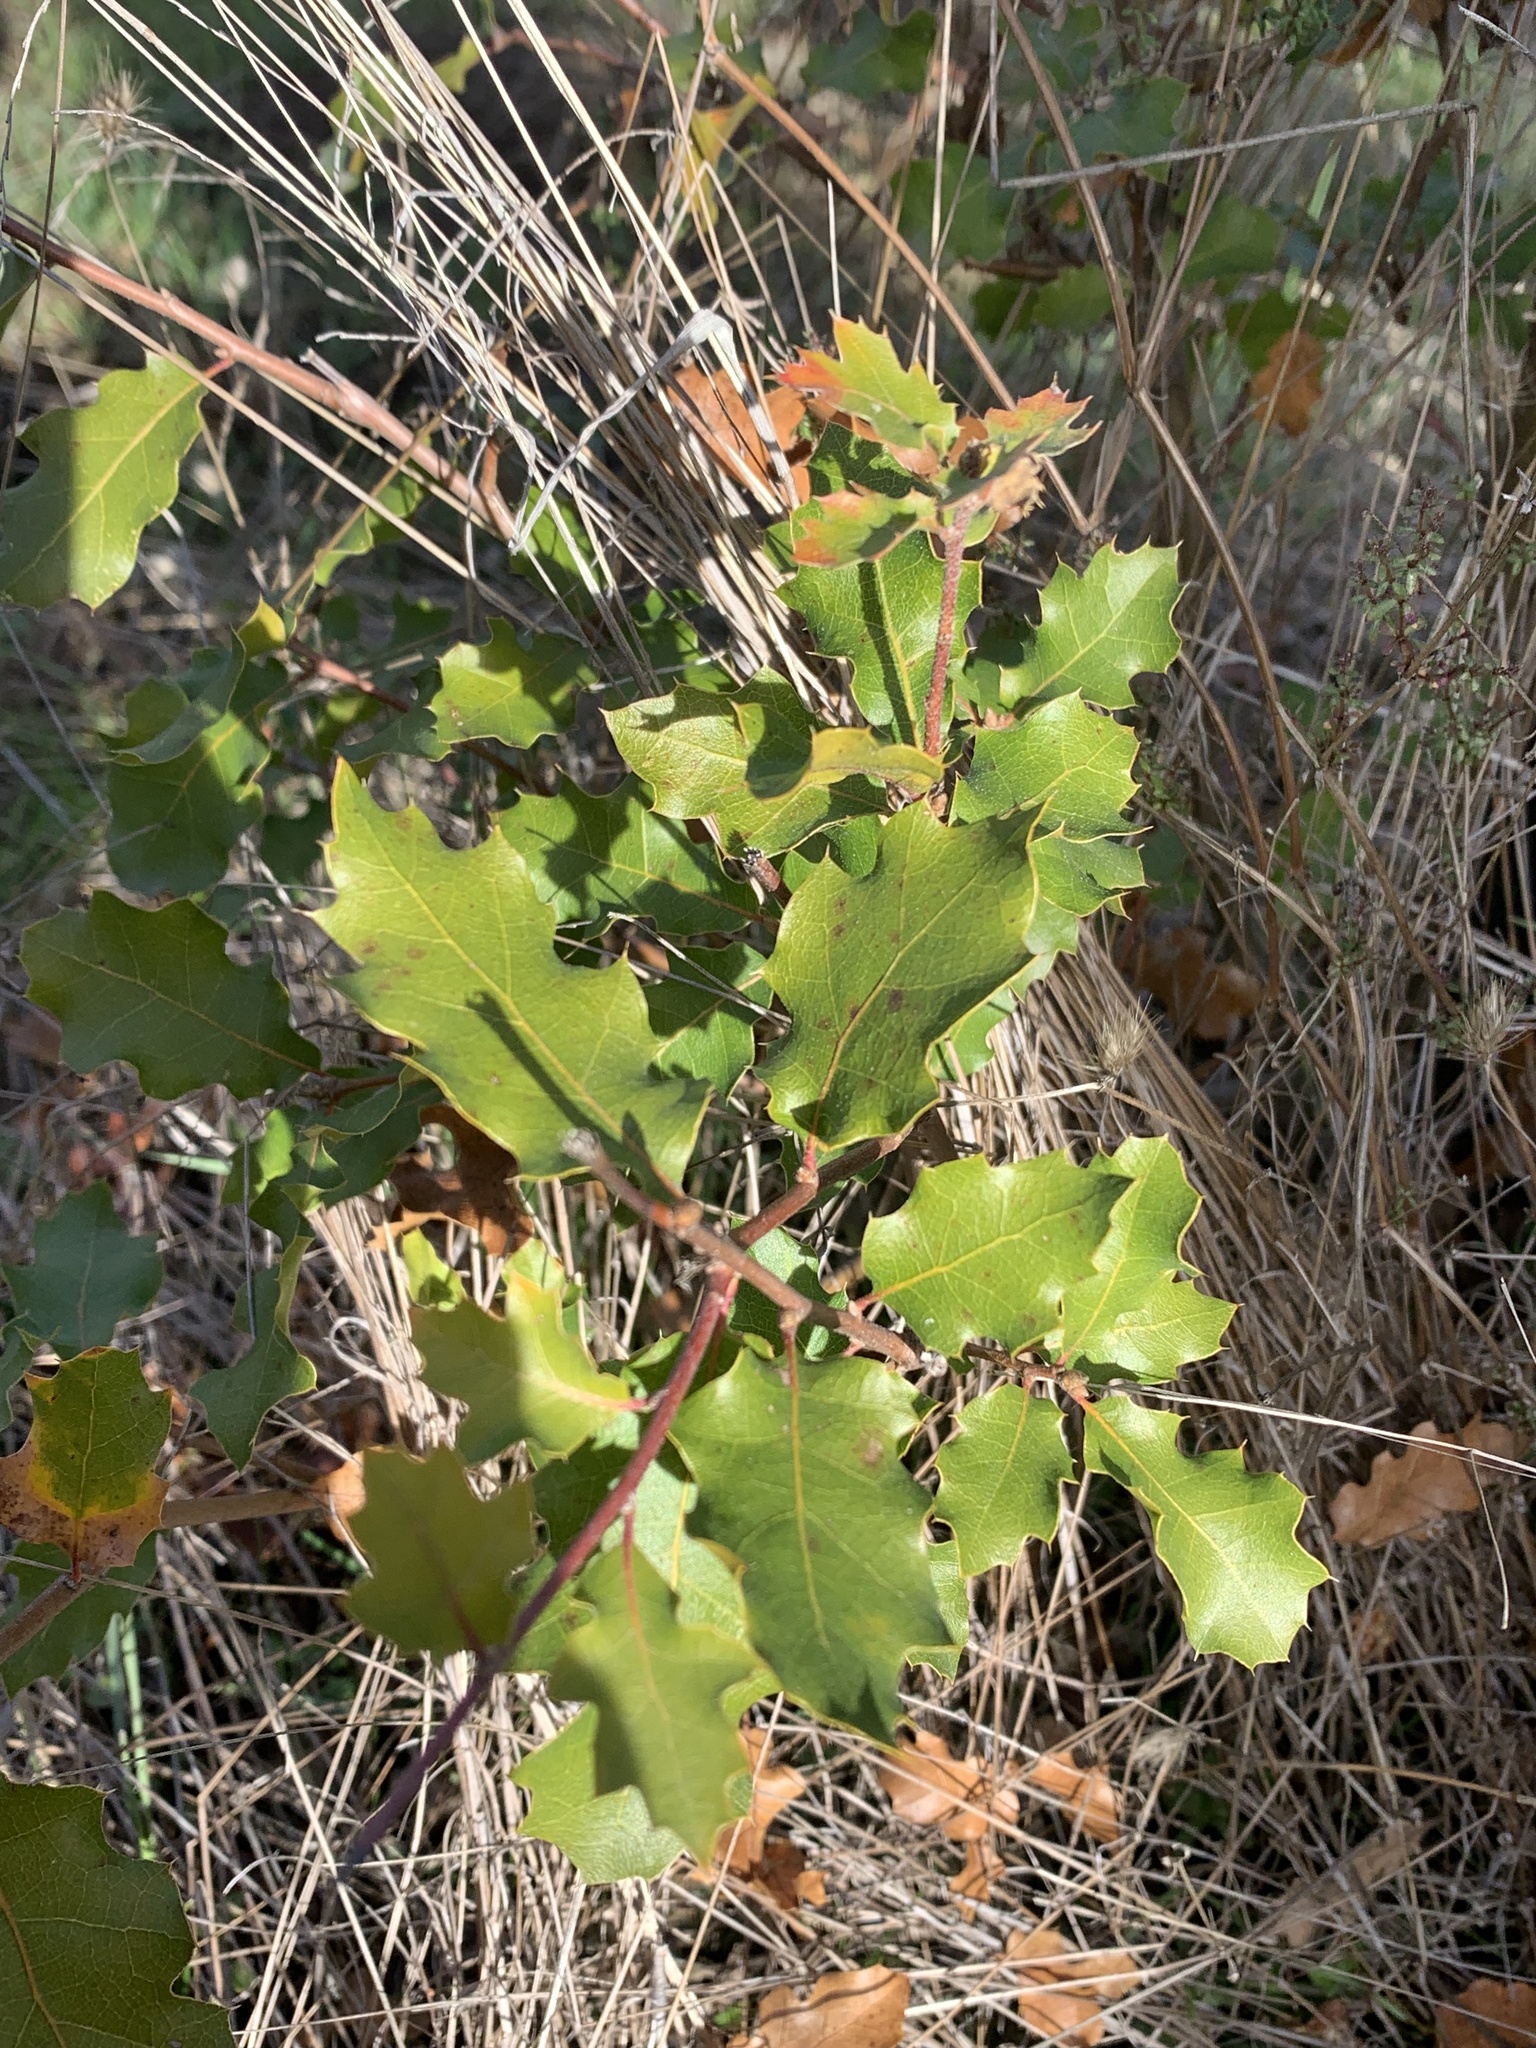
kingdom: Plantae
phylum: Tracheophyta
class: Magnoliopsida
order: Fagales
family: Fagaceae
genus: Quercus
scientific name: Quercus morehus
